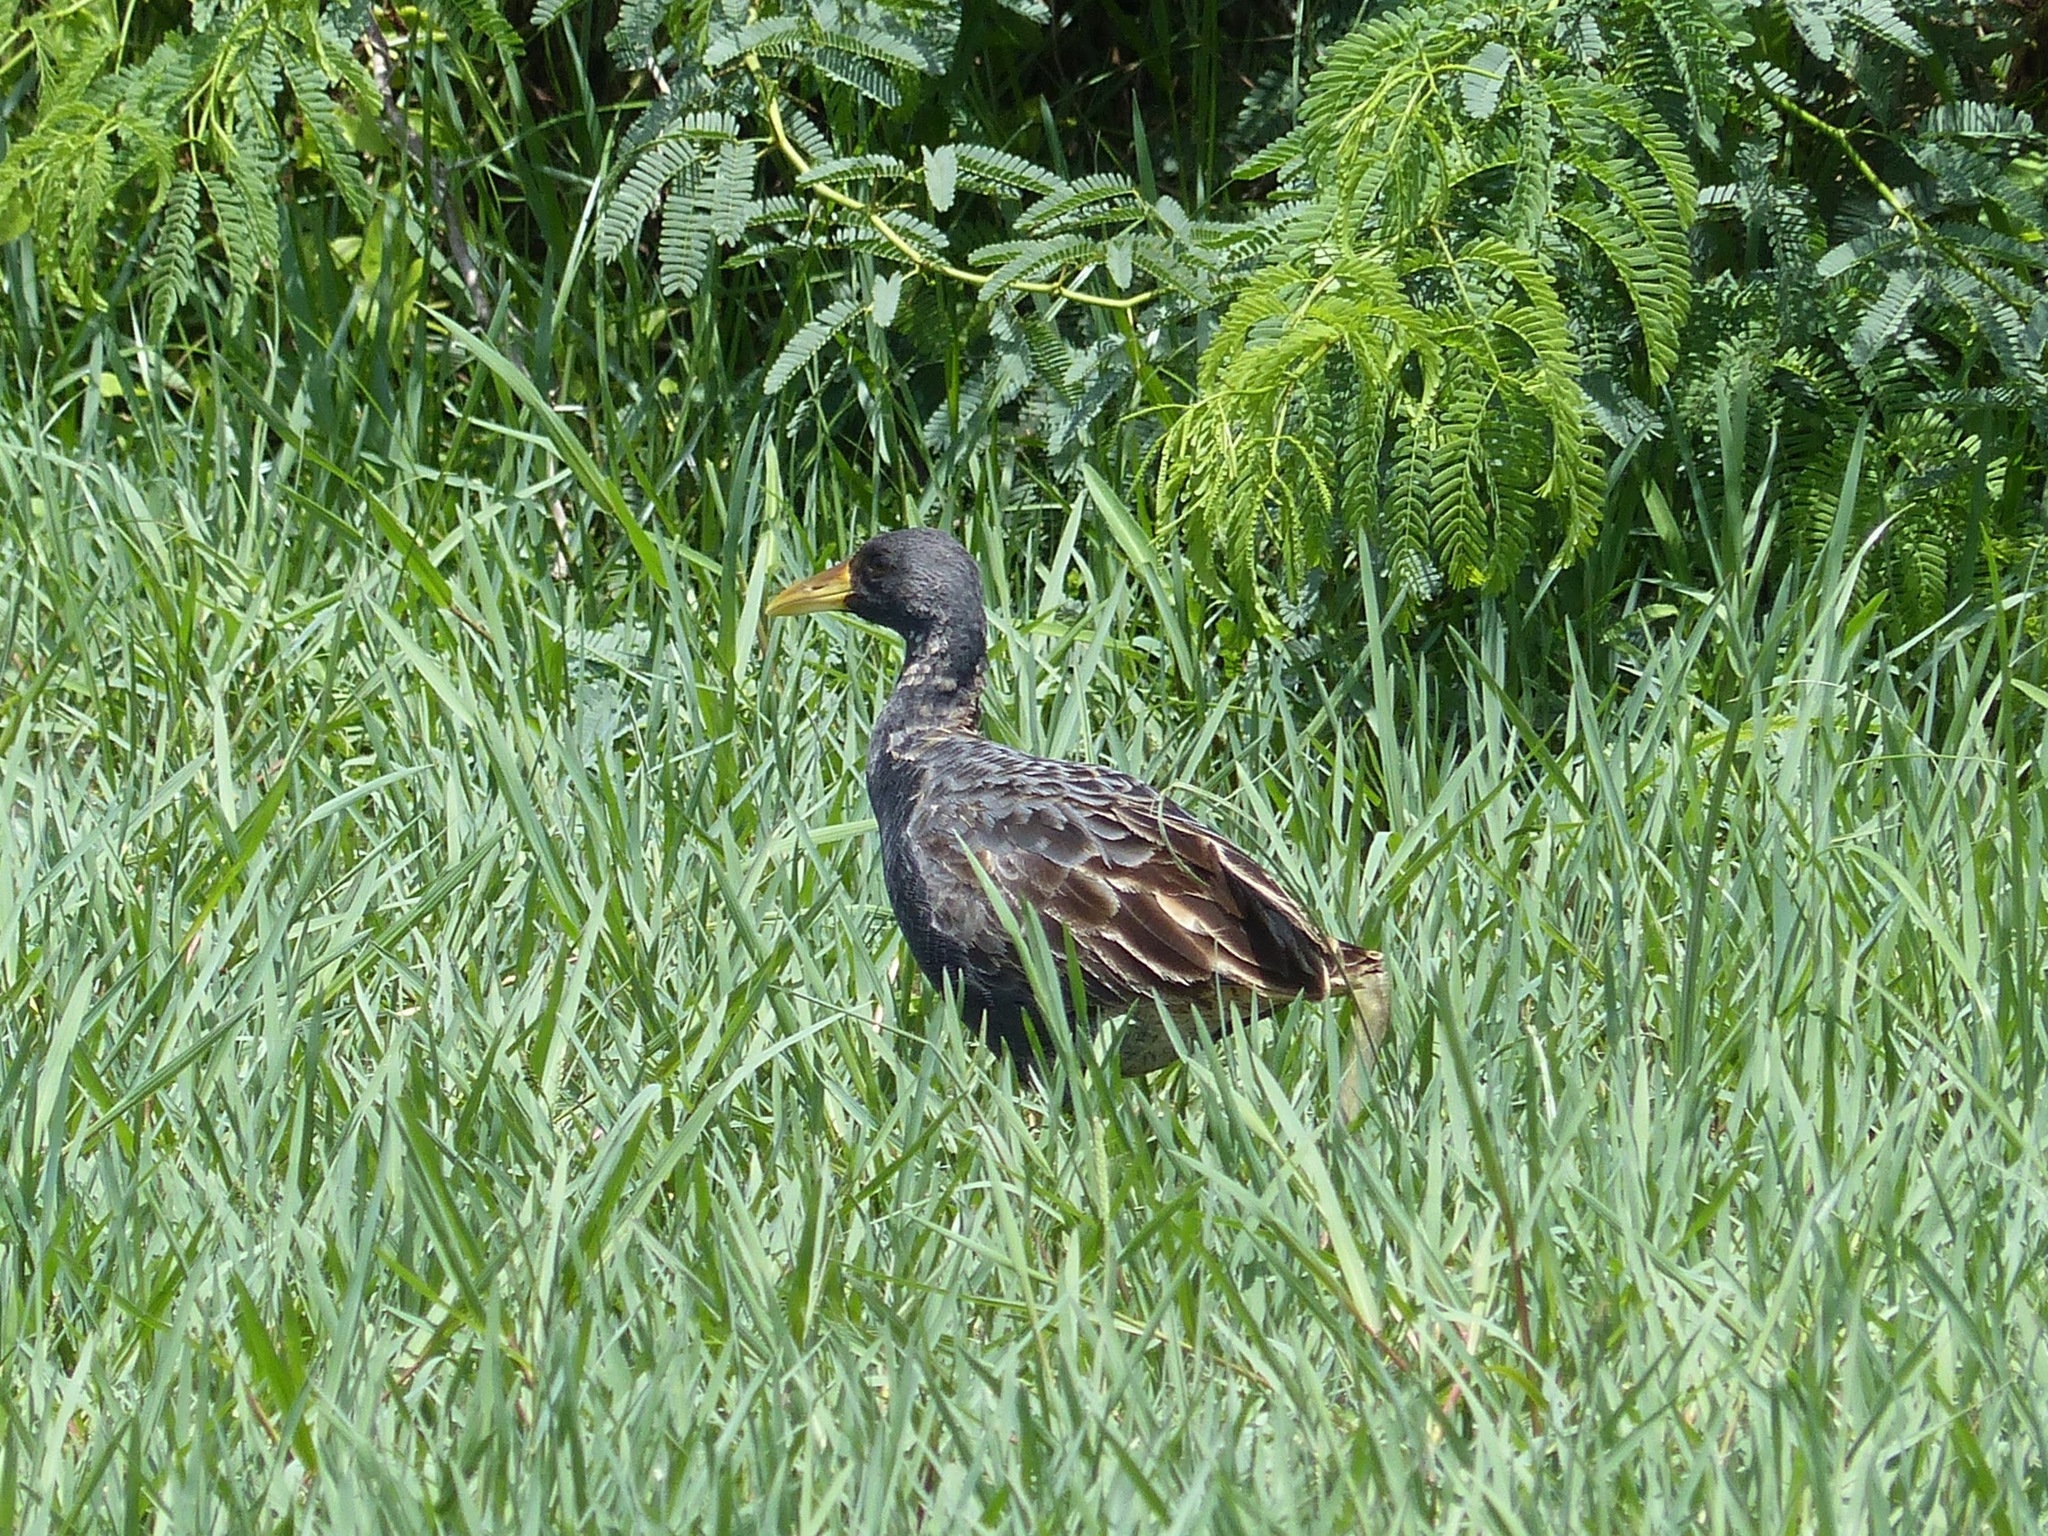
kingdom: Animalia
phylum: Chordata
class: Aves
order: Gruiformes
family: Rallidae
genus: Gallicrex
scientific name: Gallicrex cinerea
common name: Watercock
